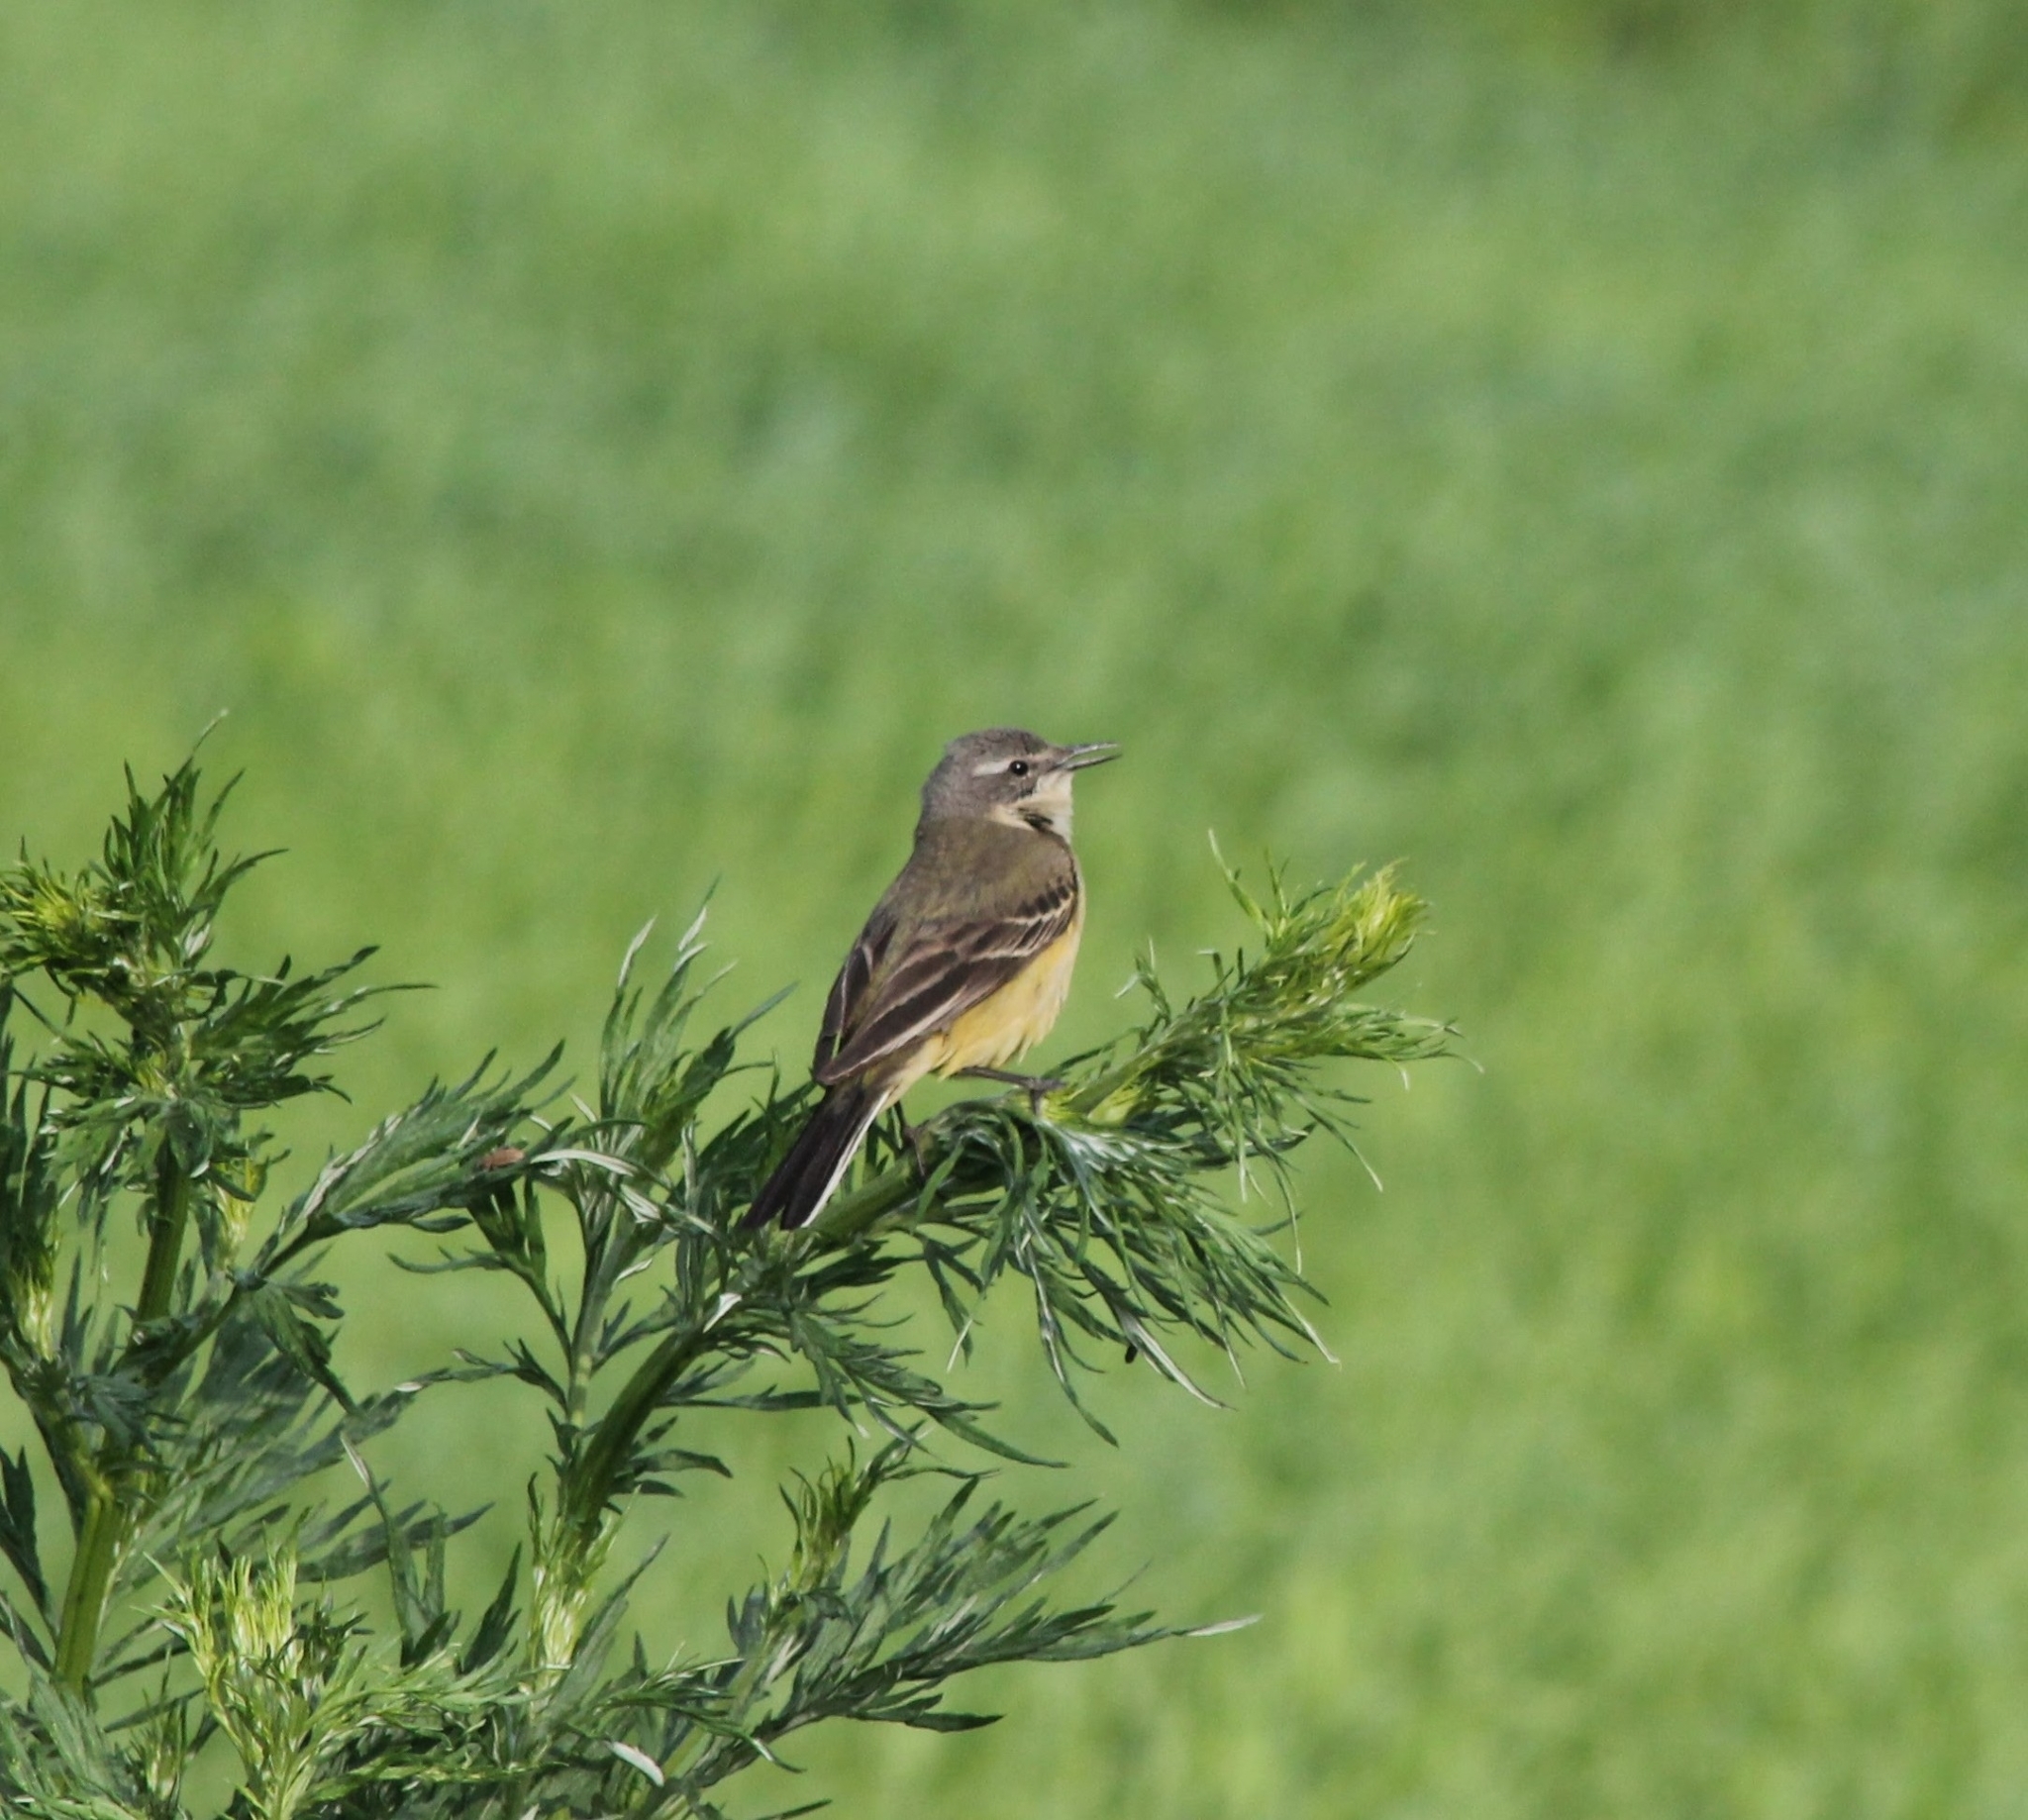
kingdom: Animalia
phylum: Chordata
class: Aves
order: Passeriformes
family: Motacillidae
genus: Motacilla
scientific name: Motacilla flava
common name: Western yellow wagtail
